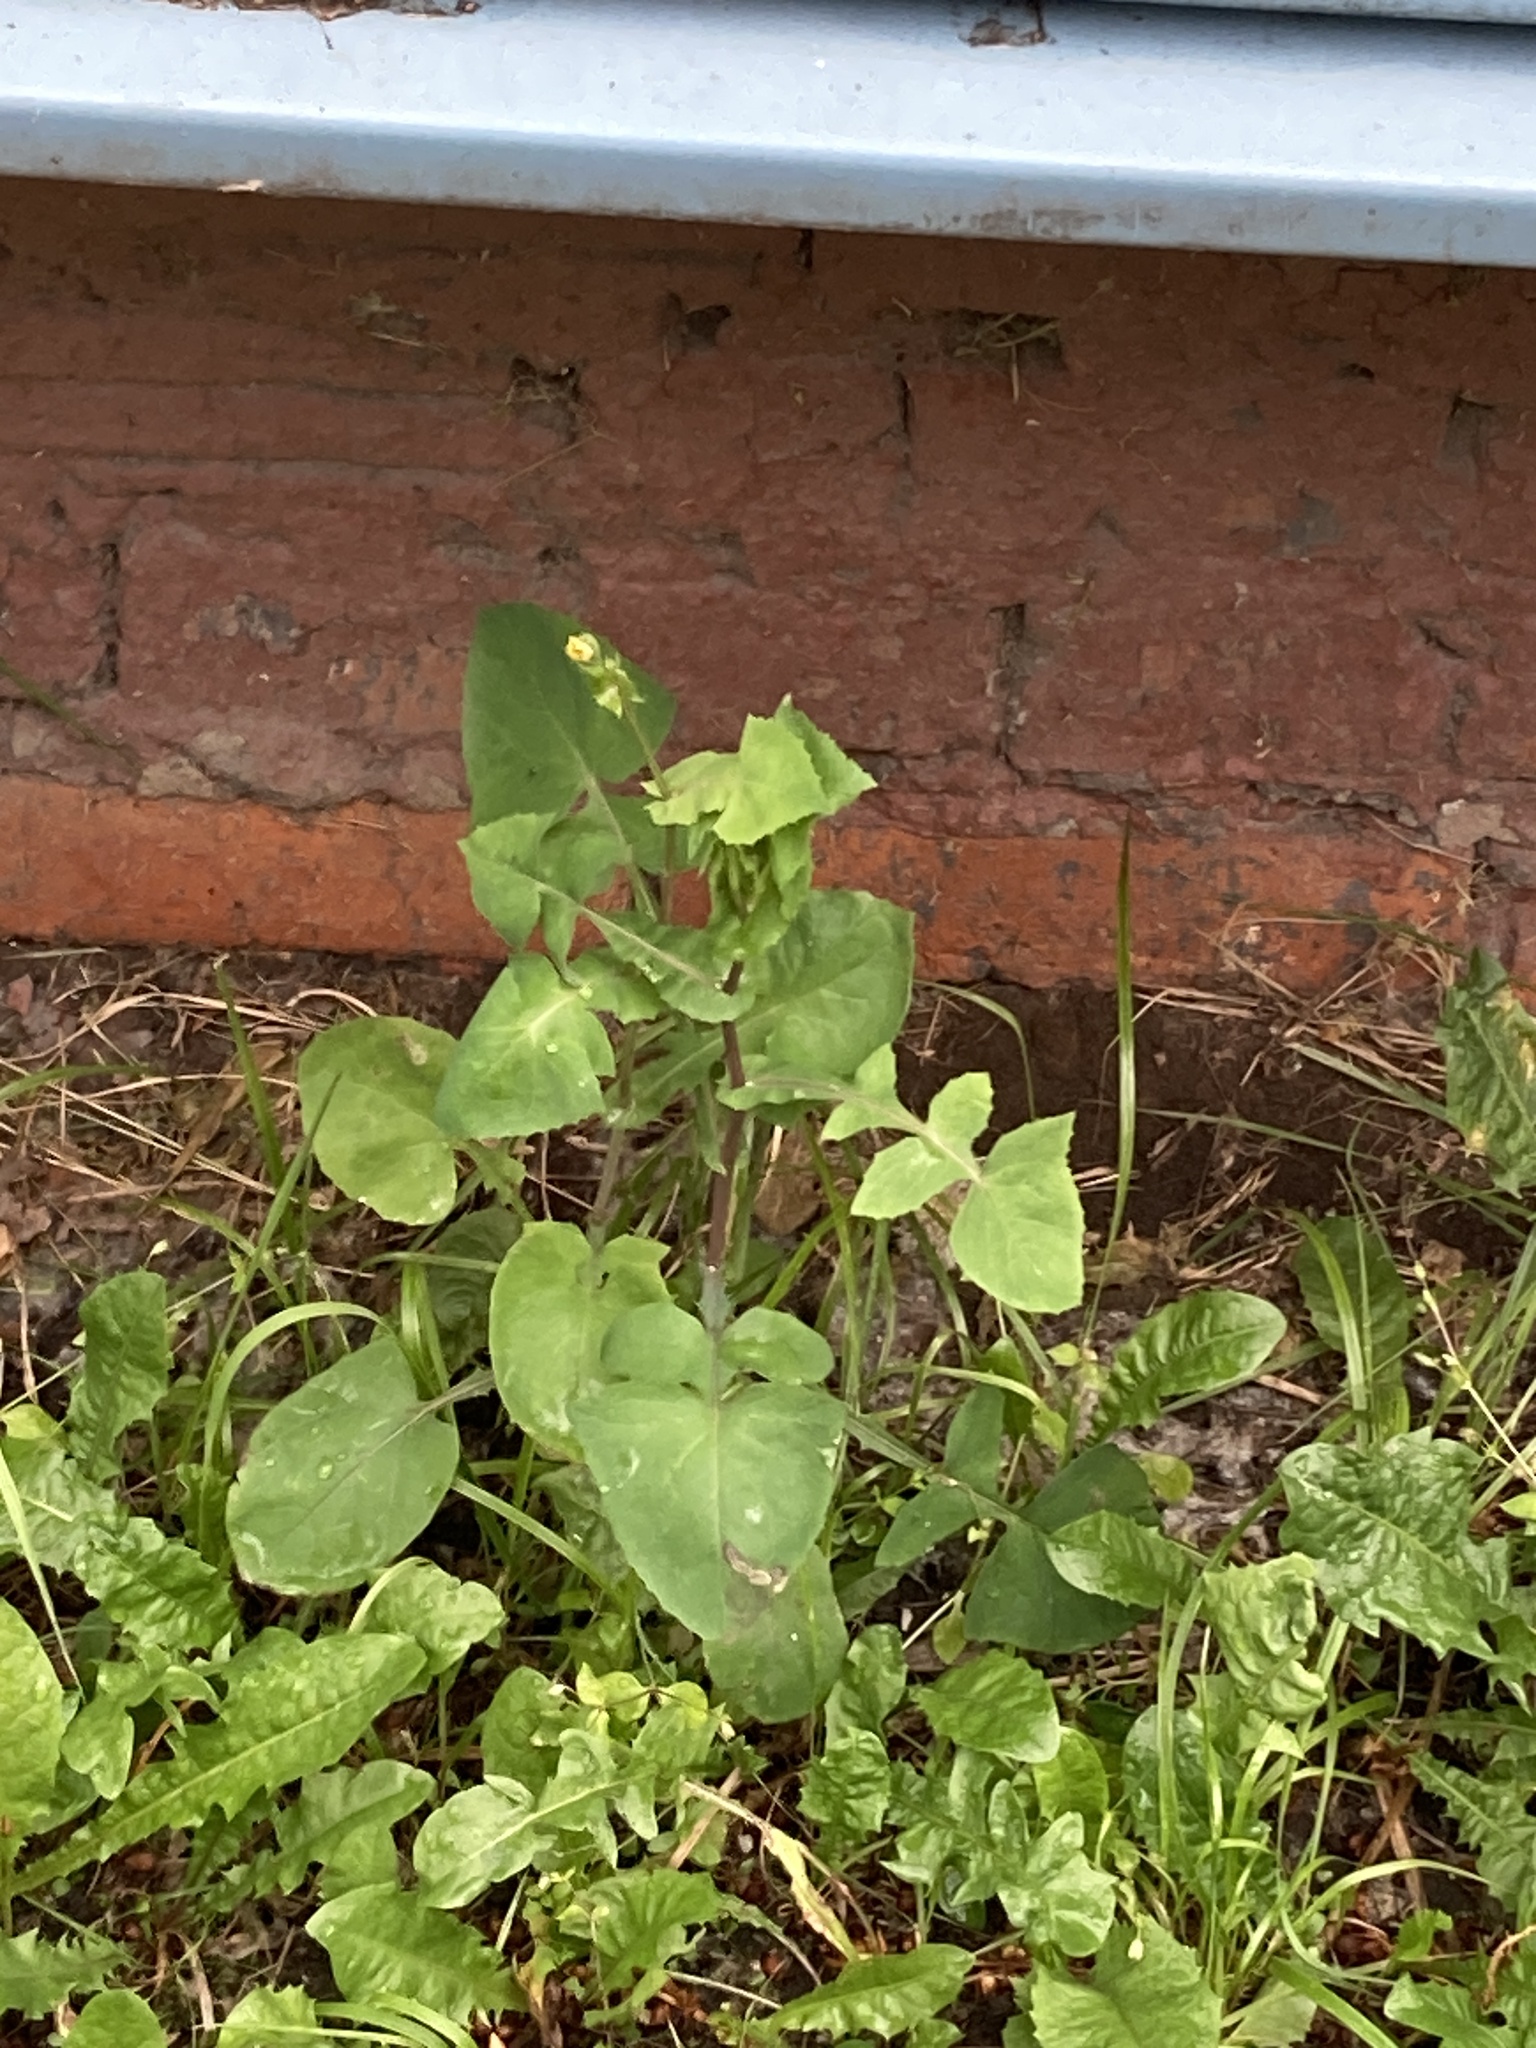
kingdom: Plantae
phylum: Tracheophyta
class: Magnoliopsida
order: Asterales
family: Asteraceae
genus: Sonchus
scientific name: Sonchus oleraceus
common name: Common sowthistle
